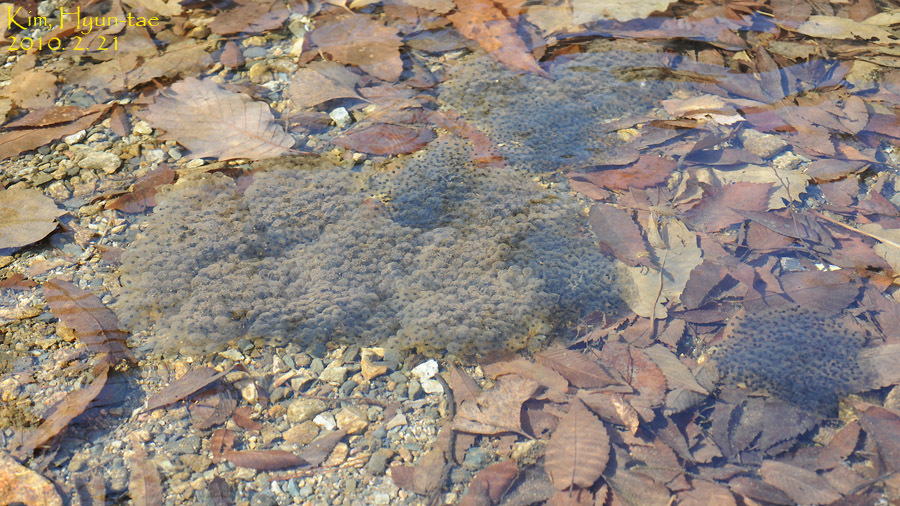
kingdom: Animalia
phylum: Chordata
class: Amphibia
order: Anura
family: Ranidae
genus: Rana
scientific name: Rana huanrenensis
